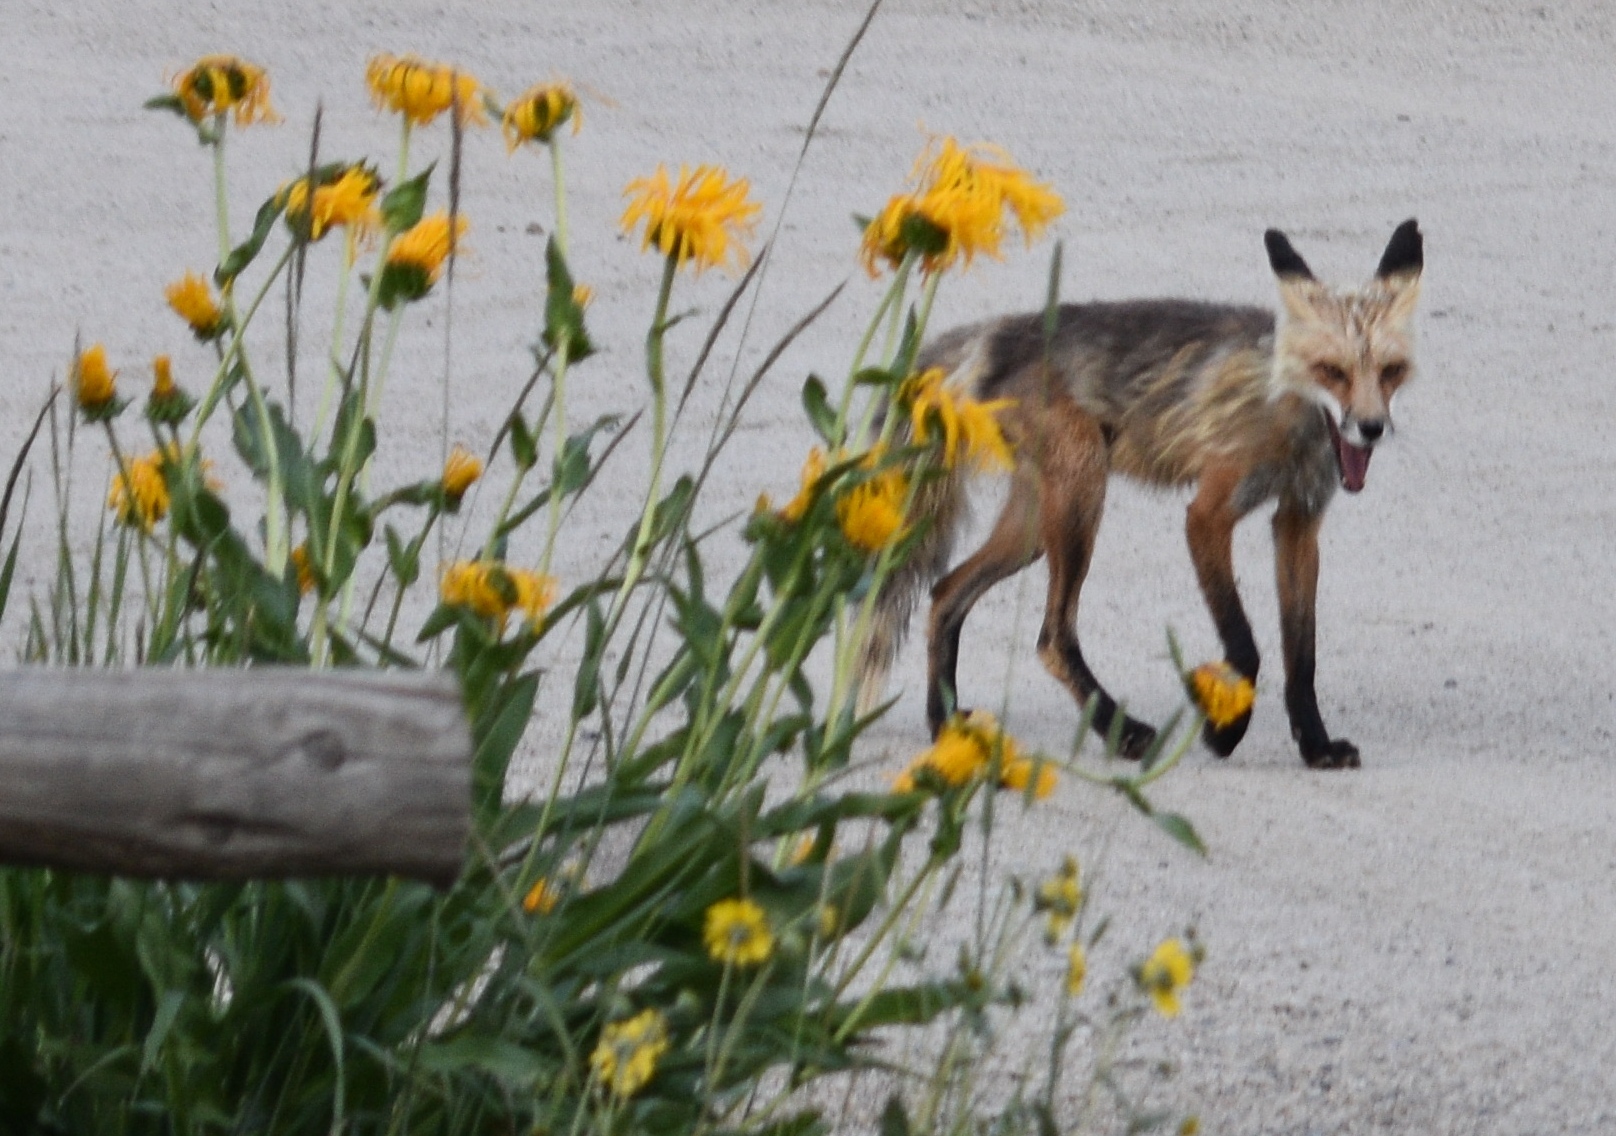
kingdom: Animalia
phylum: Chordata
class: Mammalia
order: Carnivora
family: Canidae
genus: Vulpes
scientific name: Vulpes vulpes
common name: Red fox
